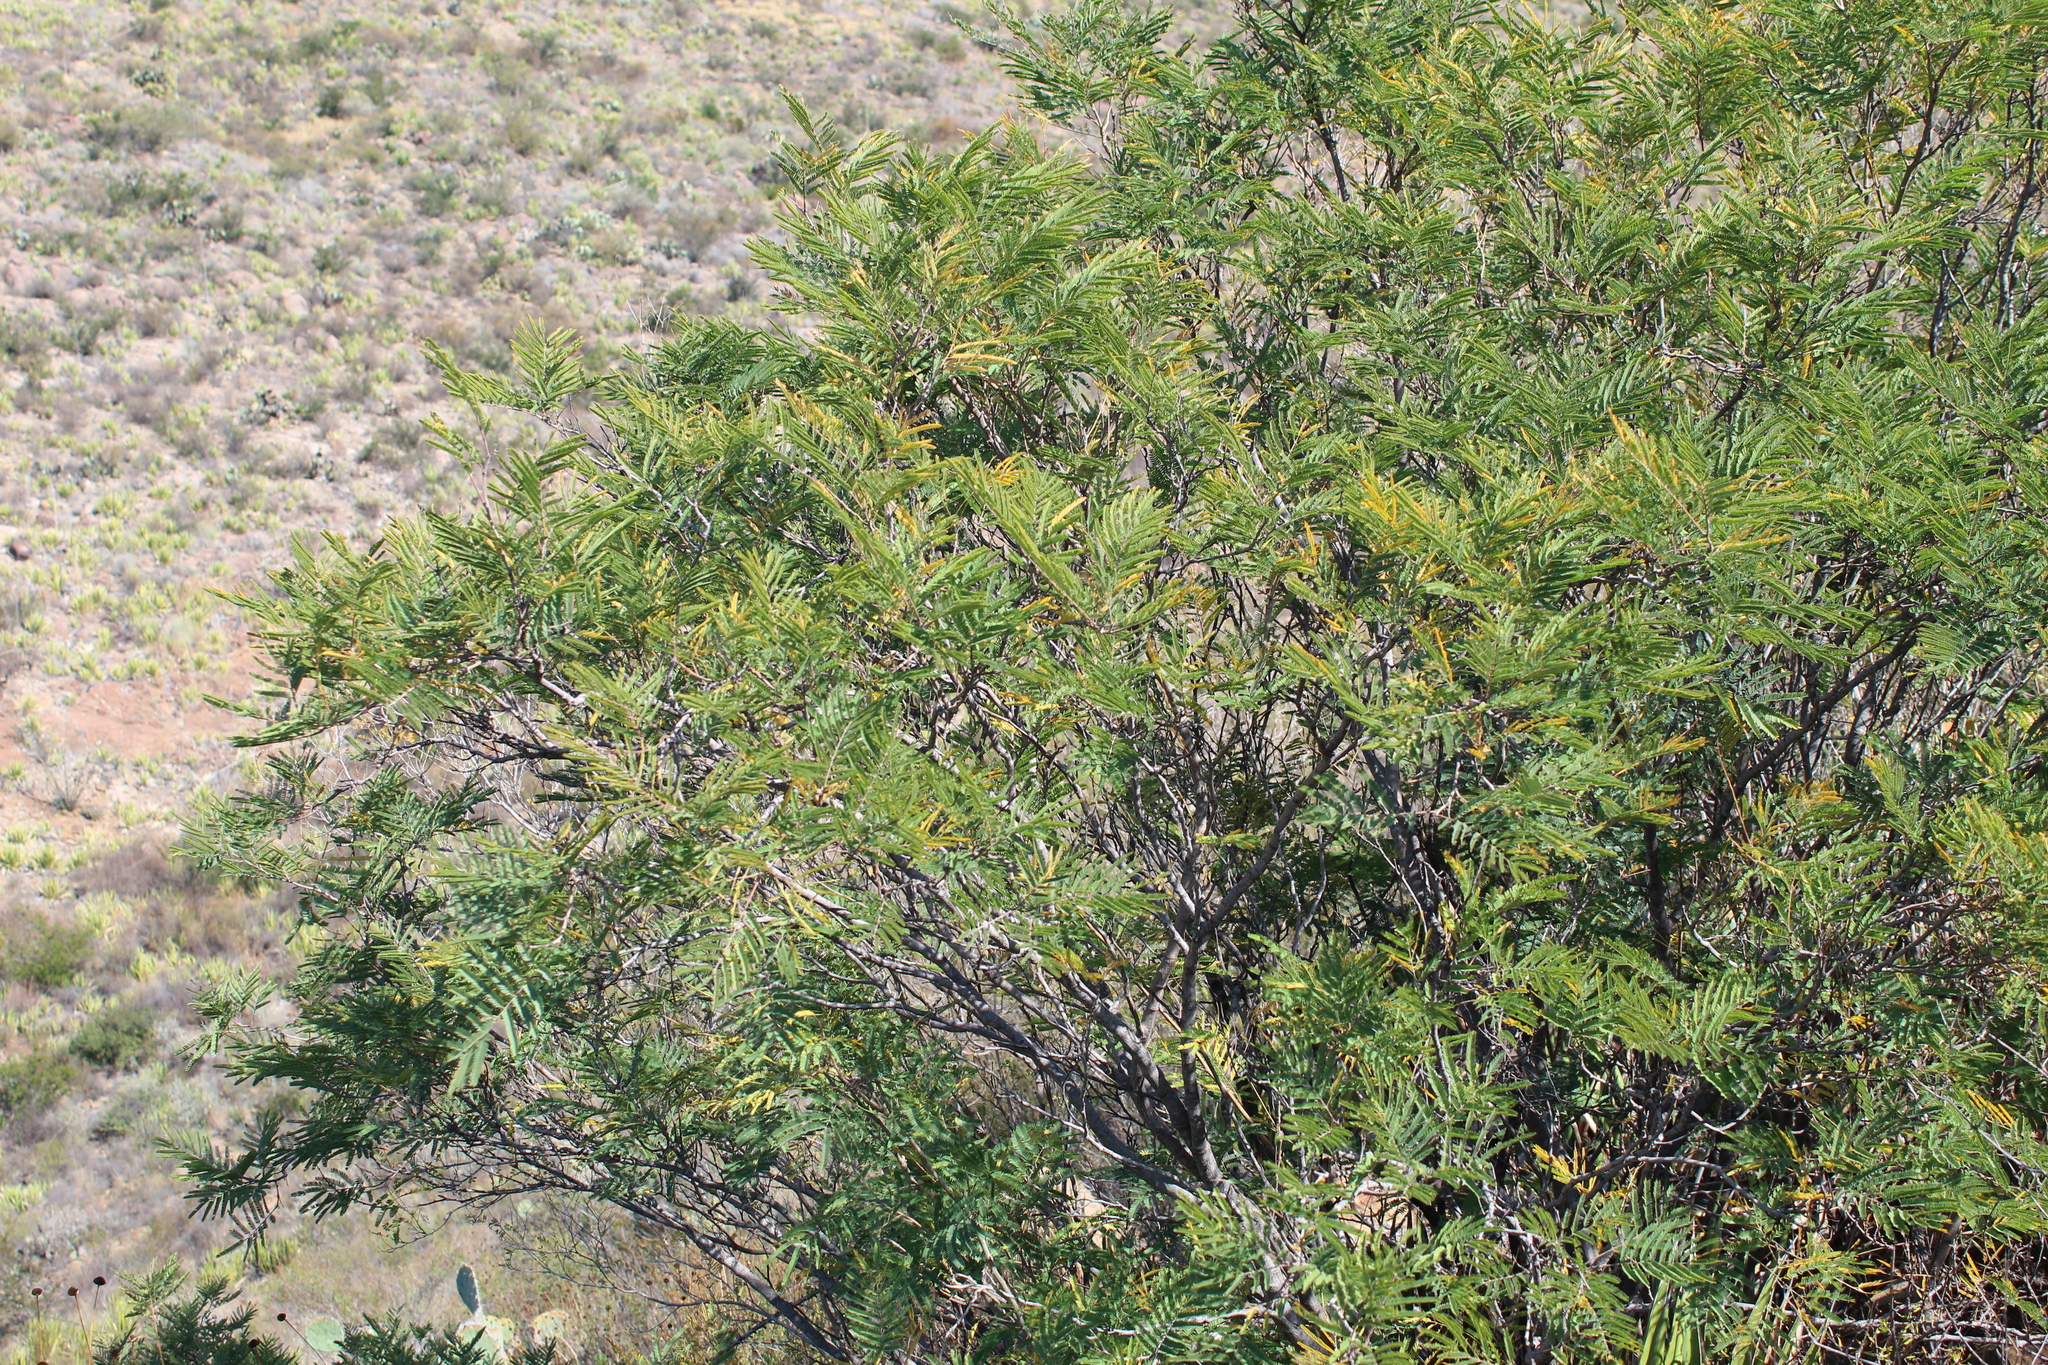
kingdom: Plantae
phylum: Tracheophyta
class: Magnoliopsida
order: Fabales
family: Fabaceae
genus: Senegalia
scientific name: Senegalia berlandieri
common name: Berlandier acacia
